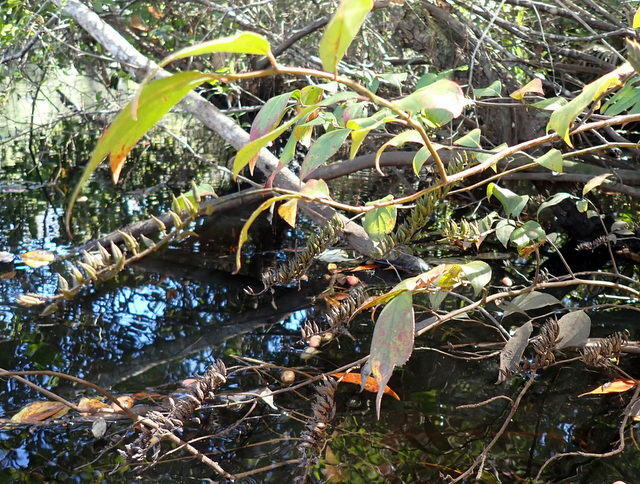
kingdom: Plantae
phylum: Tracheophyta
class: Magnoliopsida
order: Saxifragales
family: Iteaceae
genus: Itea
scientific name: Itea virginica
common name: Sweetspire
